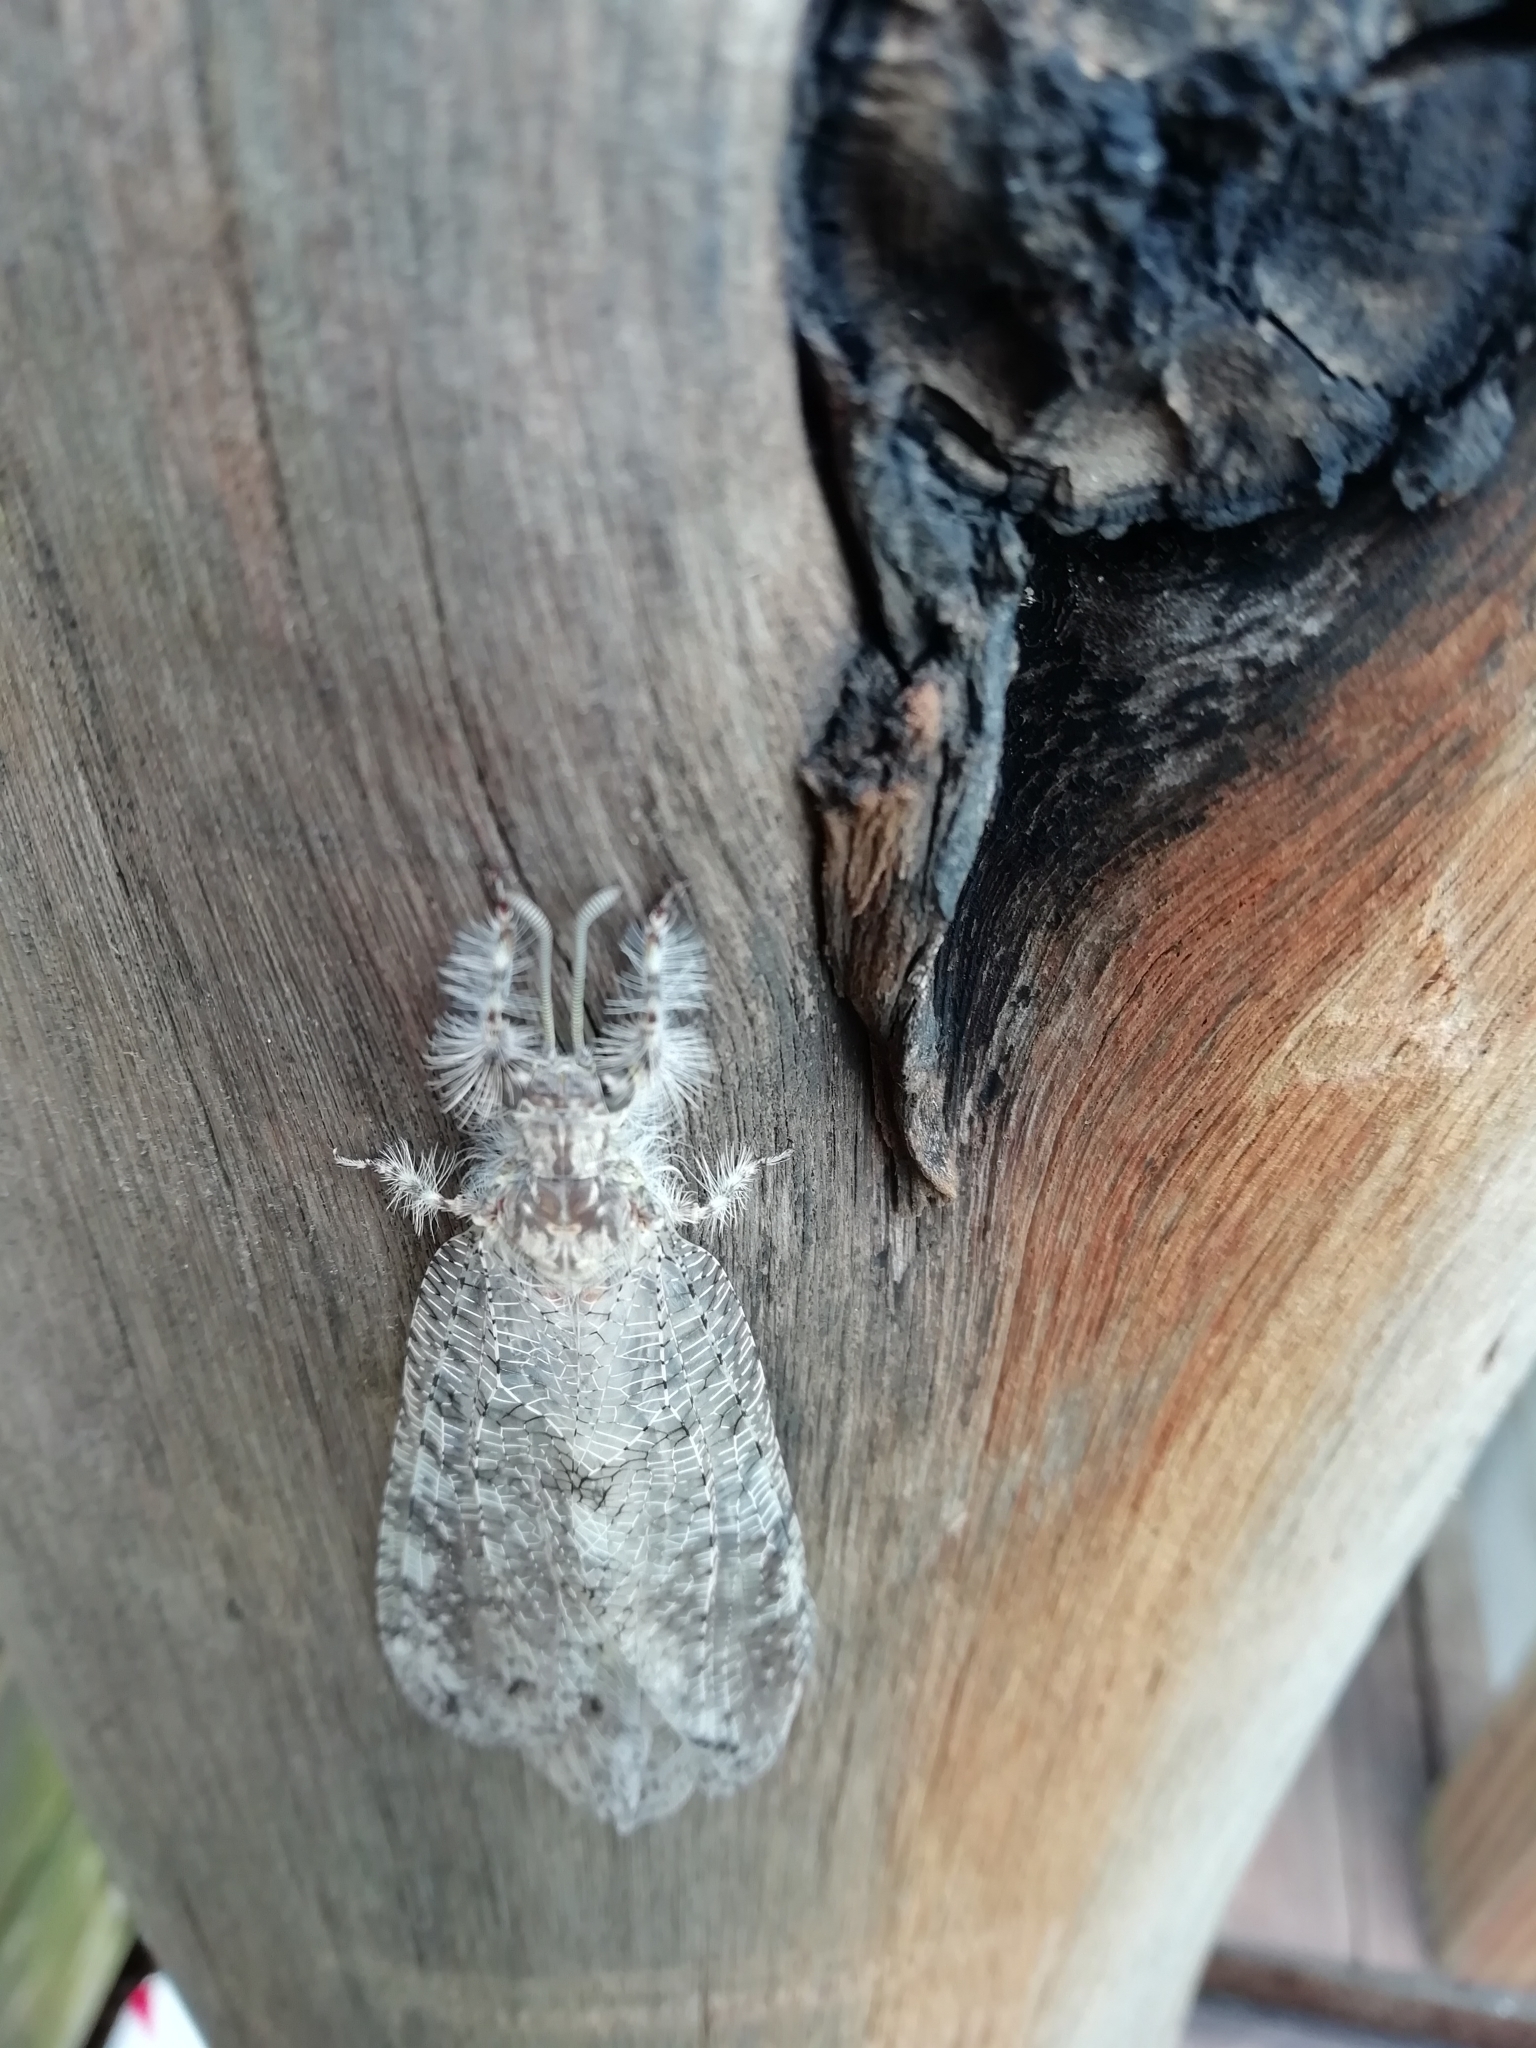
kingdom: Animalia
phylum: Arthropoda
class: Insecta
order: Neuroptera
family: Myrmeleontidae
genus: Vella
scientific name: Vella fallax
